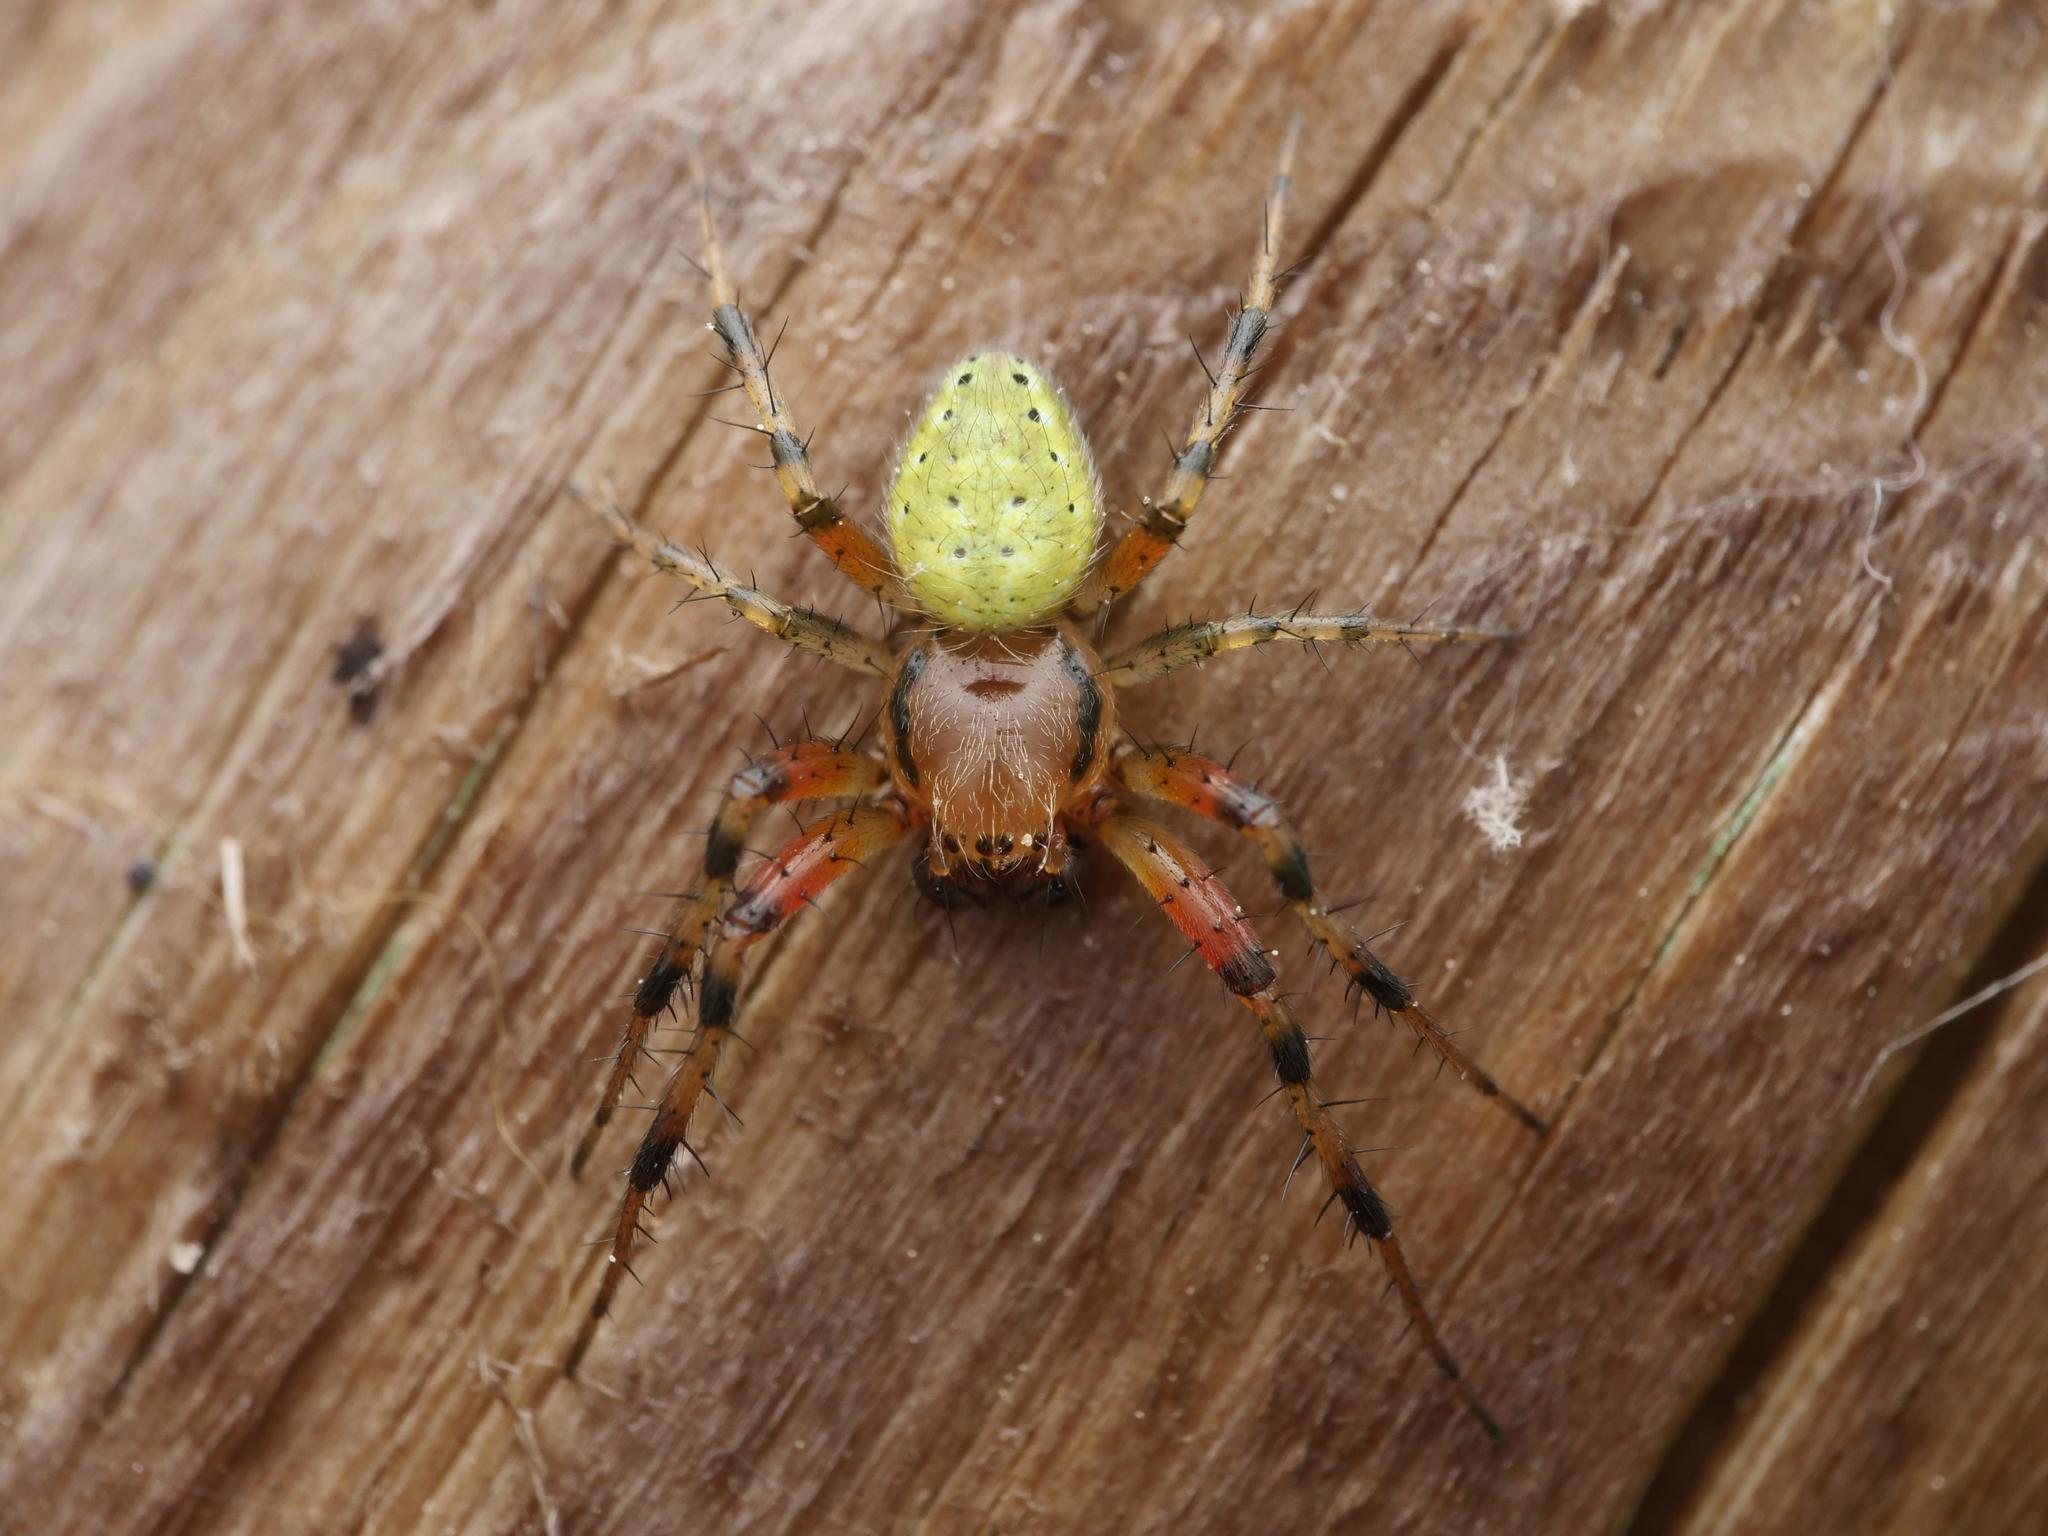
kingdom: Animalia
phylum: Arthropoda
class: Arachnida
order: Araneae
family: Araneidae
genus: Araniella
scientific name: Araniella cucurbitina
